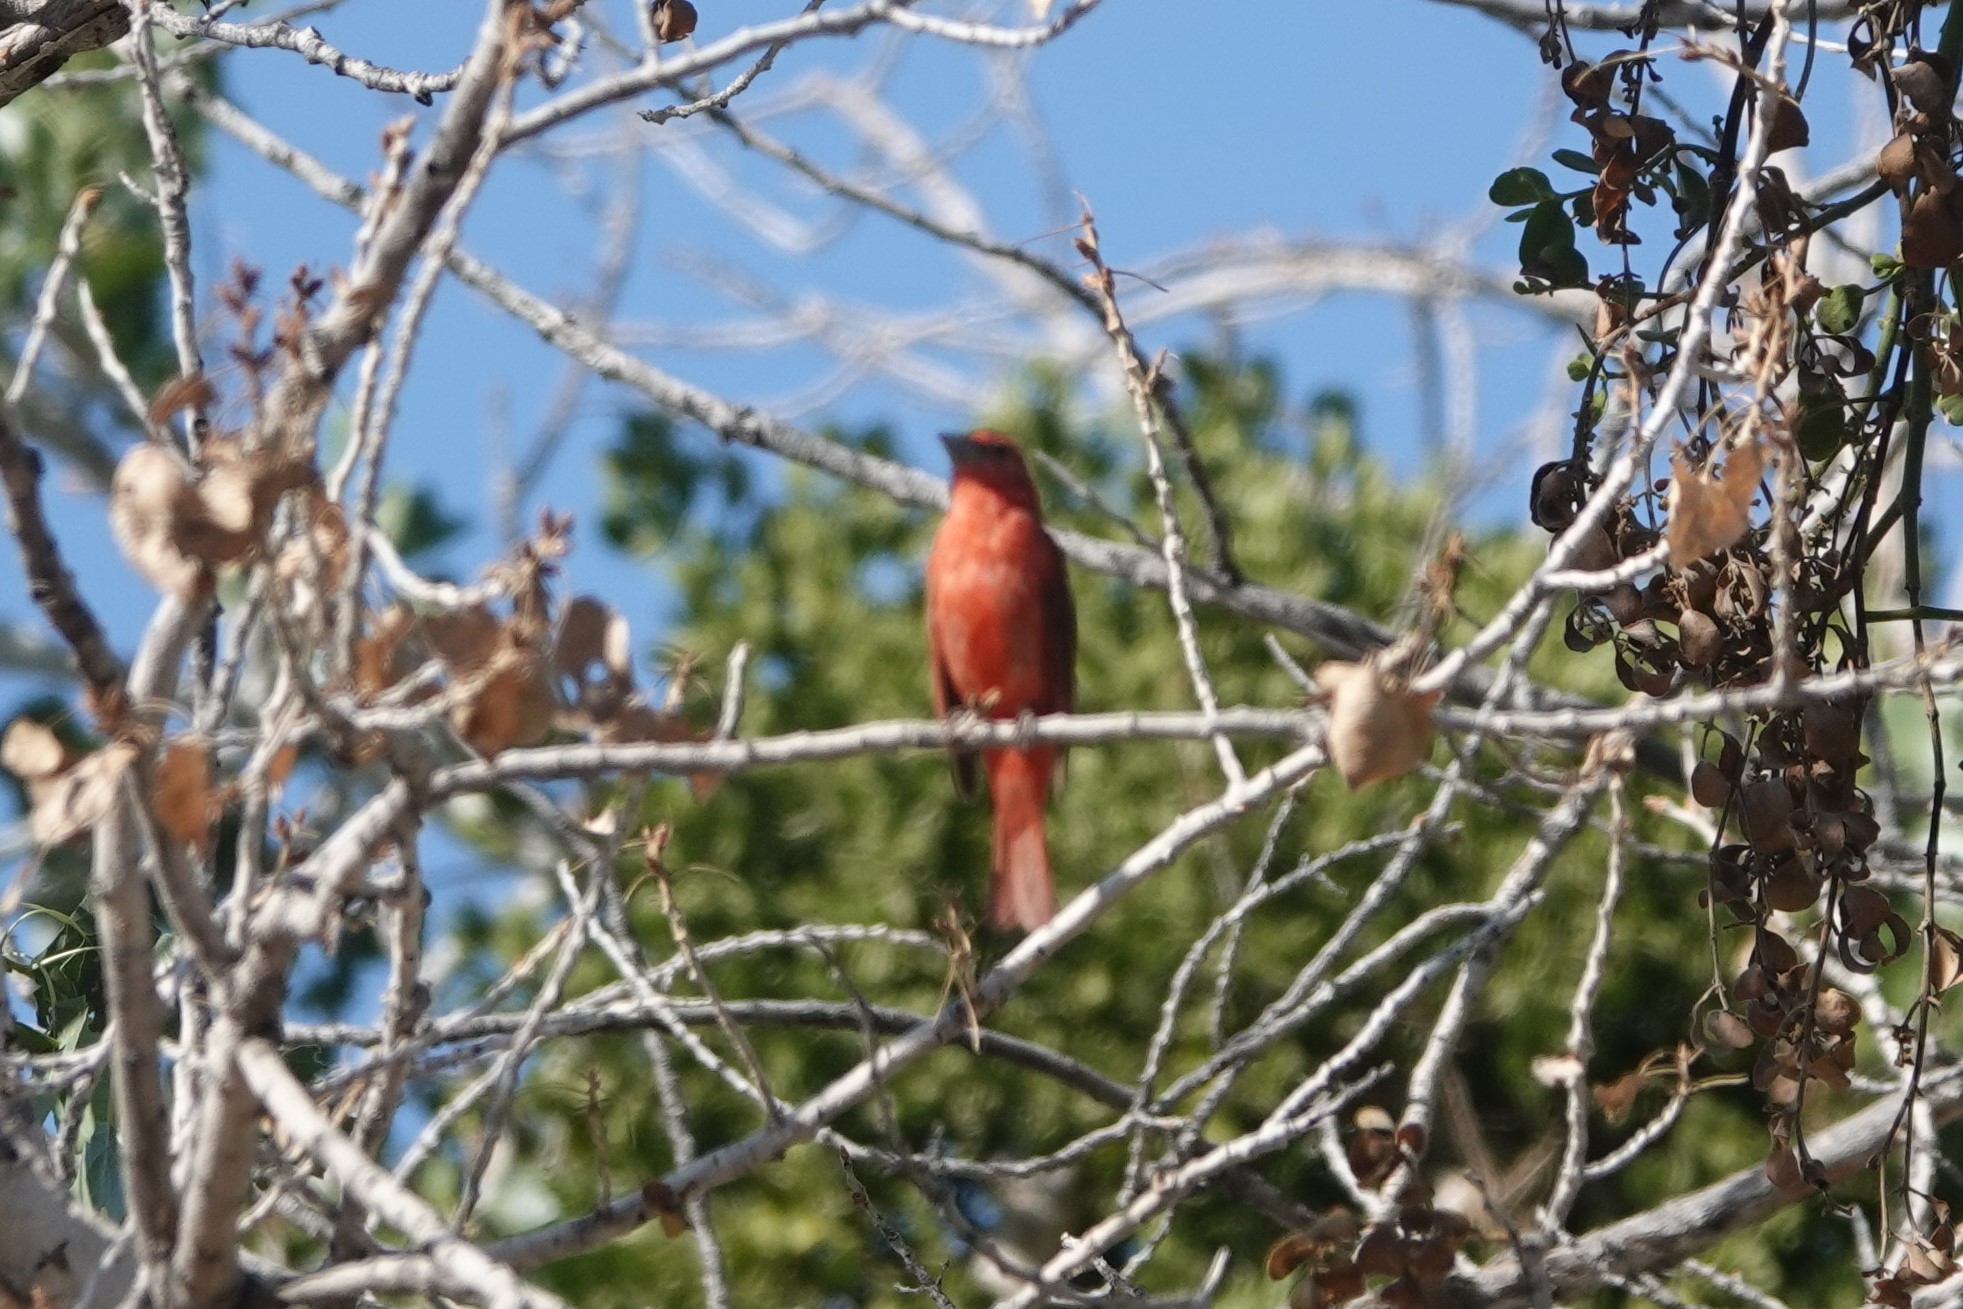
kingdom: Animalia
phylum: Chordata
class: Aves
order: Passeriformes
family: Cardinalidae
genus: Piranga
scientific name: Piranga rubra
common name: Summer tanager
